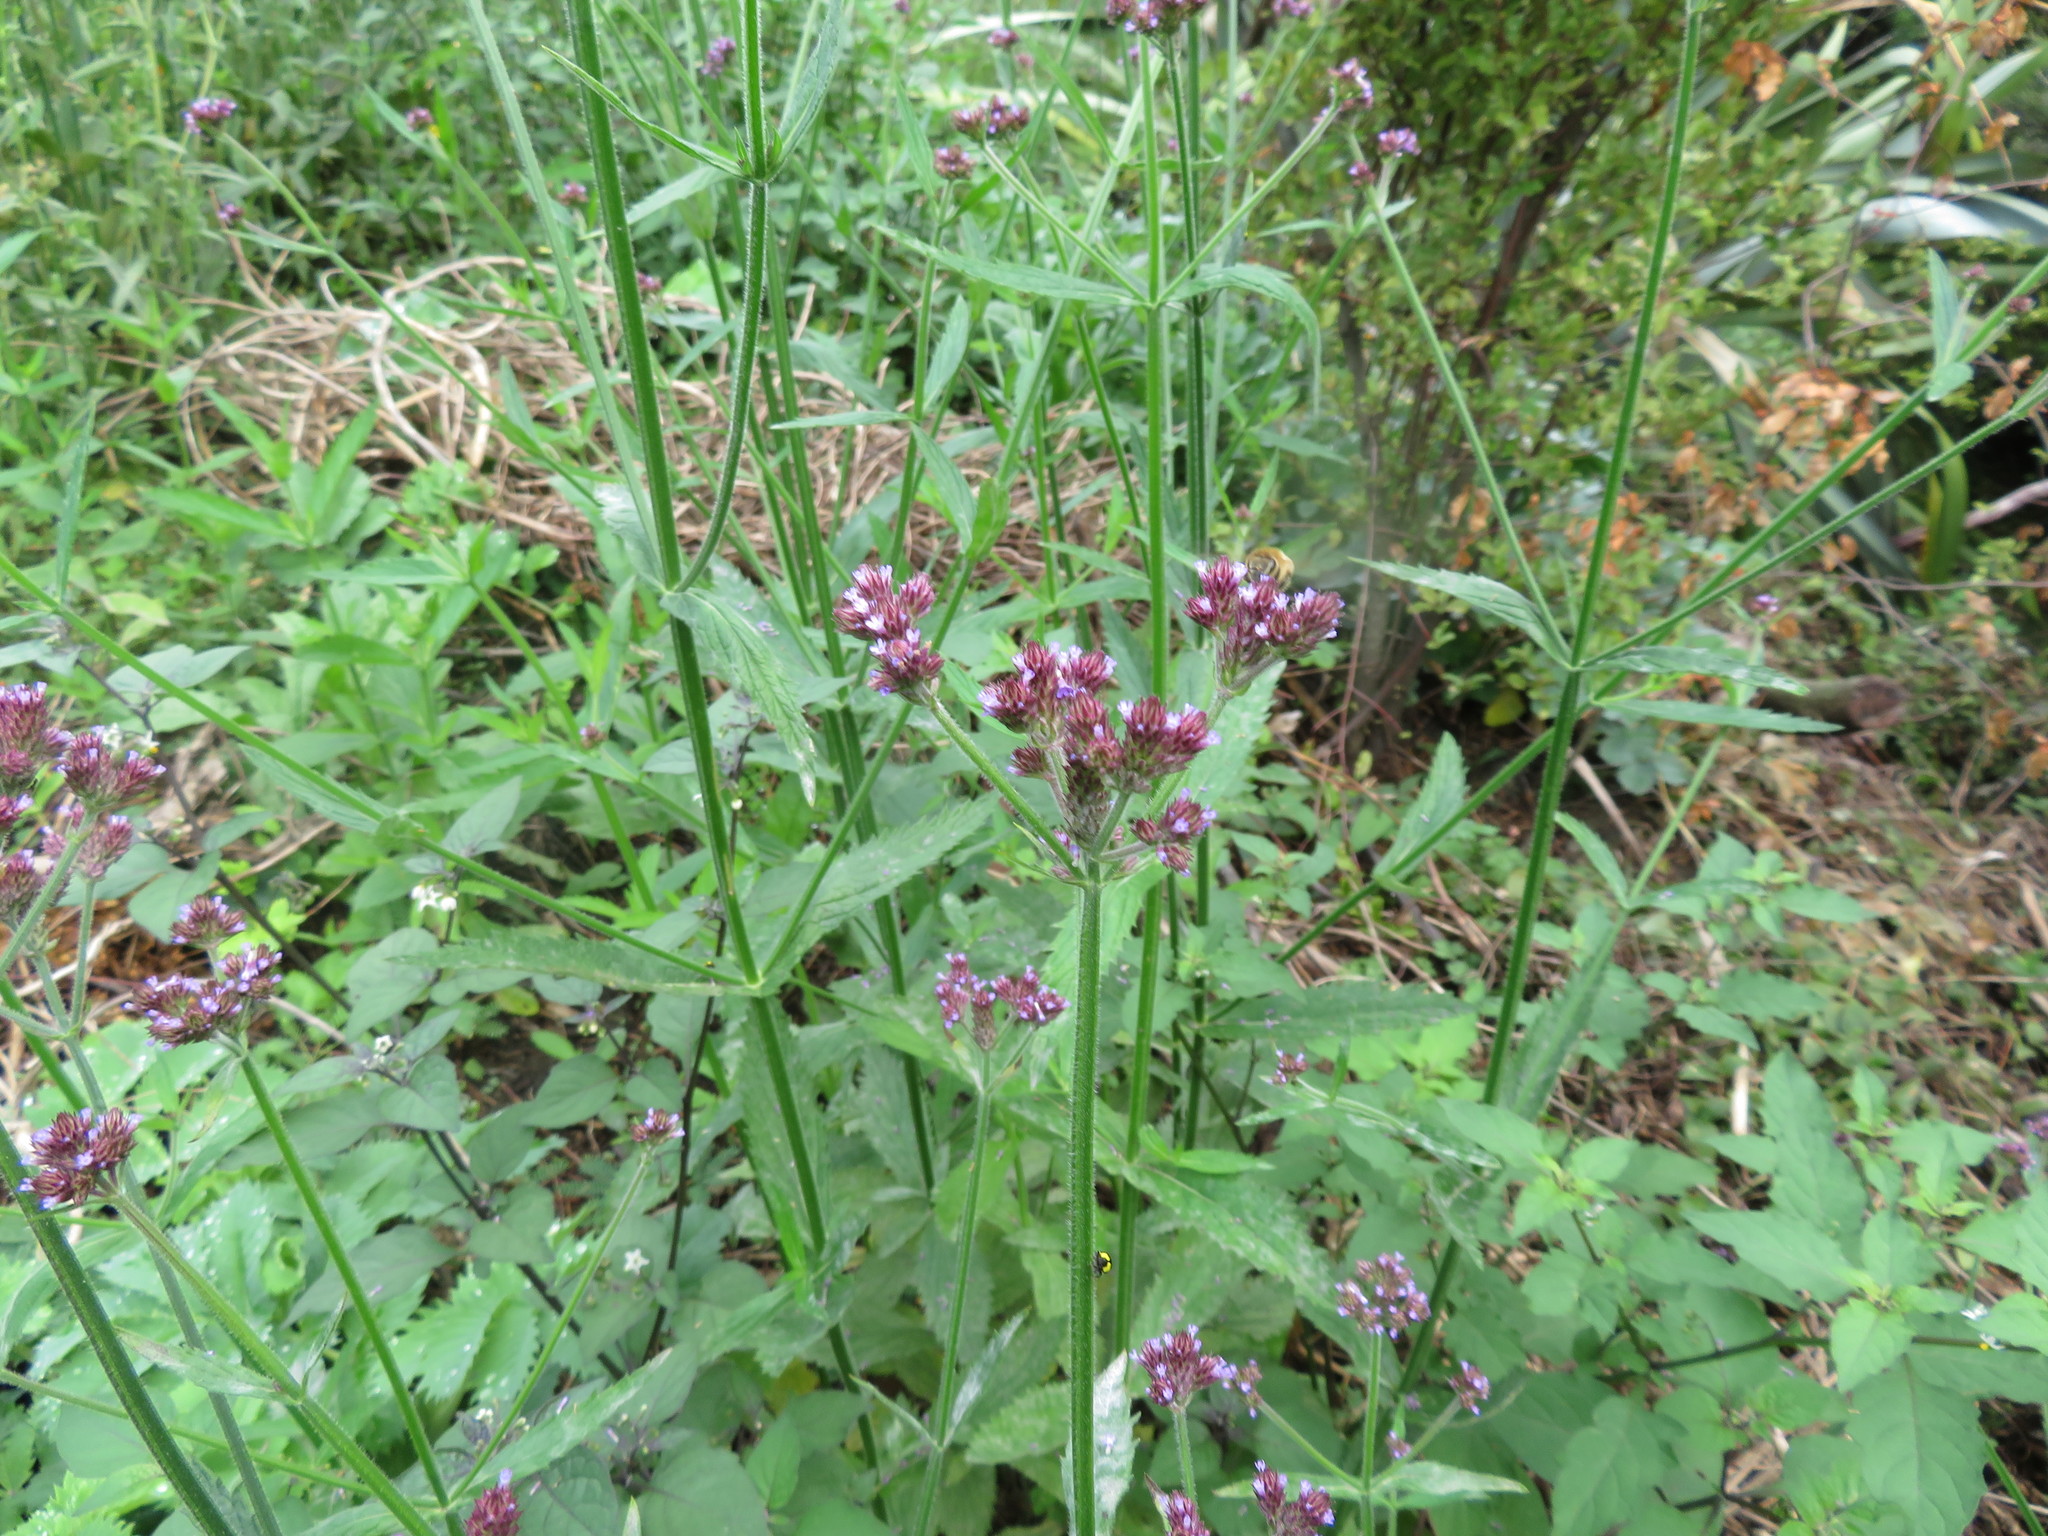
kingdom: Plantae
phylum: Tracheophyta
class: Magnoliopsida
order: Lamiales
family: Verbenaceae
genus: Verbena
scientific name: Verbena incompta
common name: Purpletop vervain
